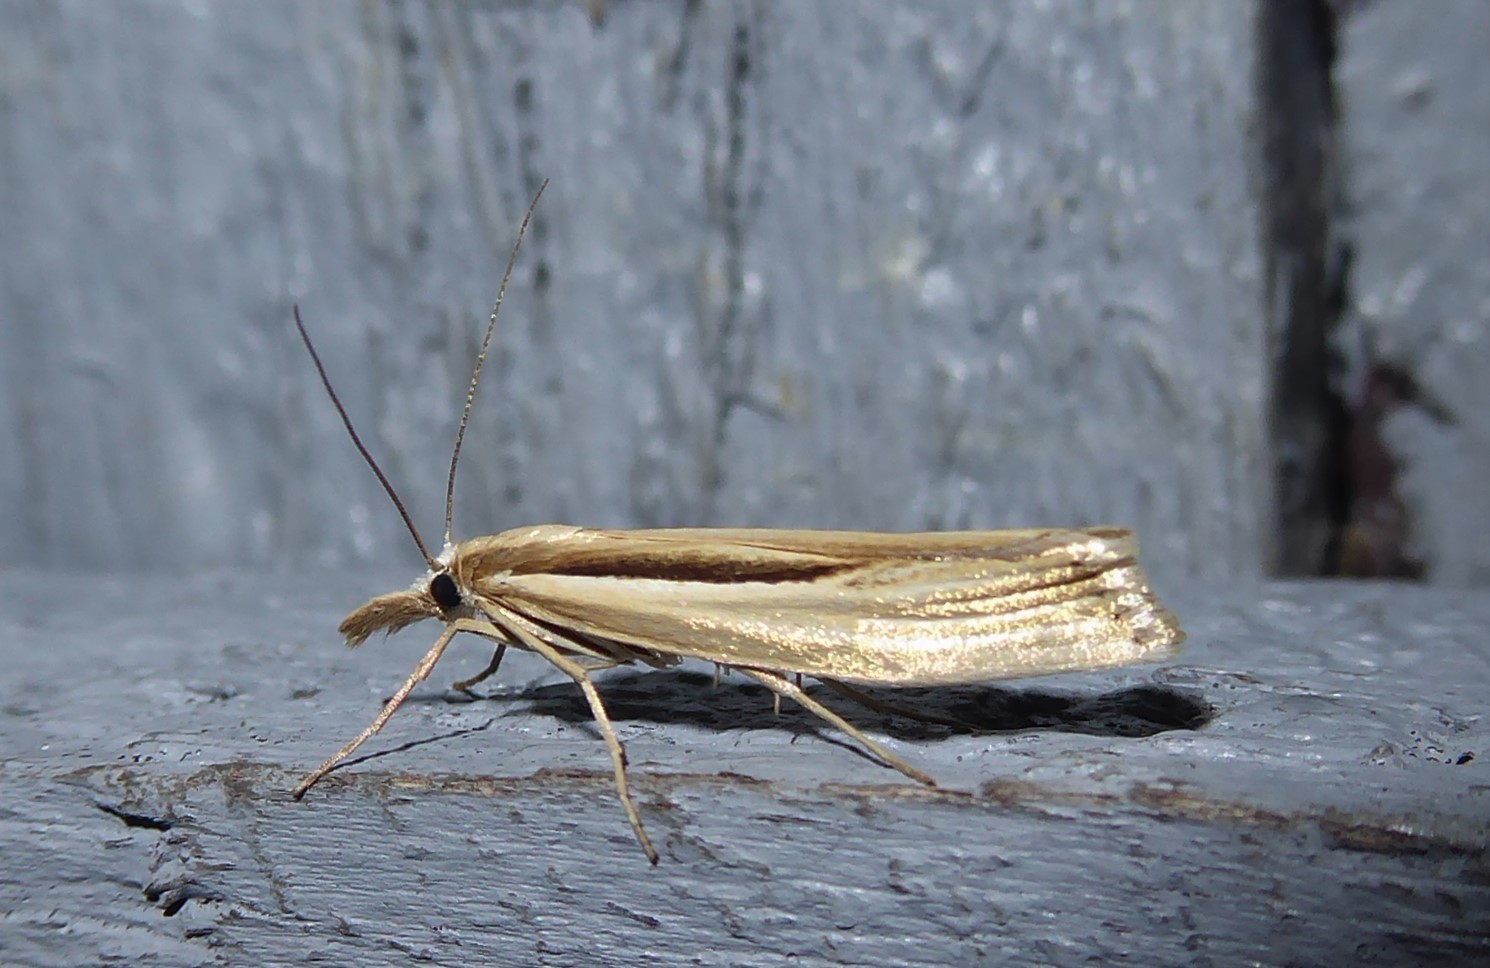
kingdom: Animalia
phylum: Arthropoda
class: Insecta
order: Lepidoptera
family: Crambidae
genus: Orocrambus
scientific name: Orocrambus ramosellus
